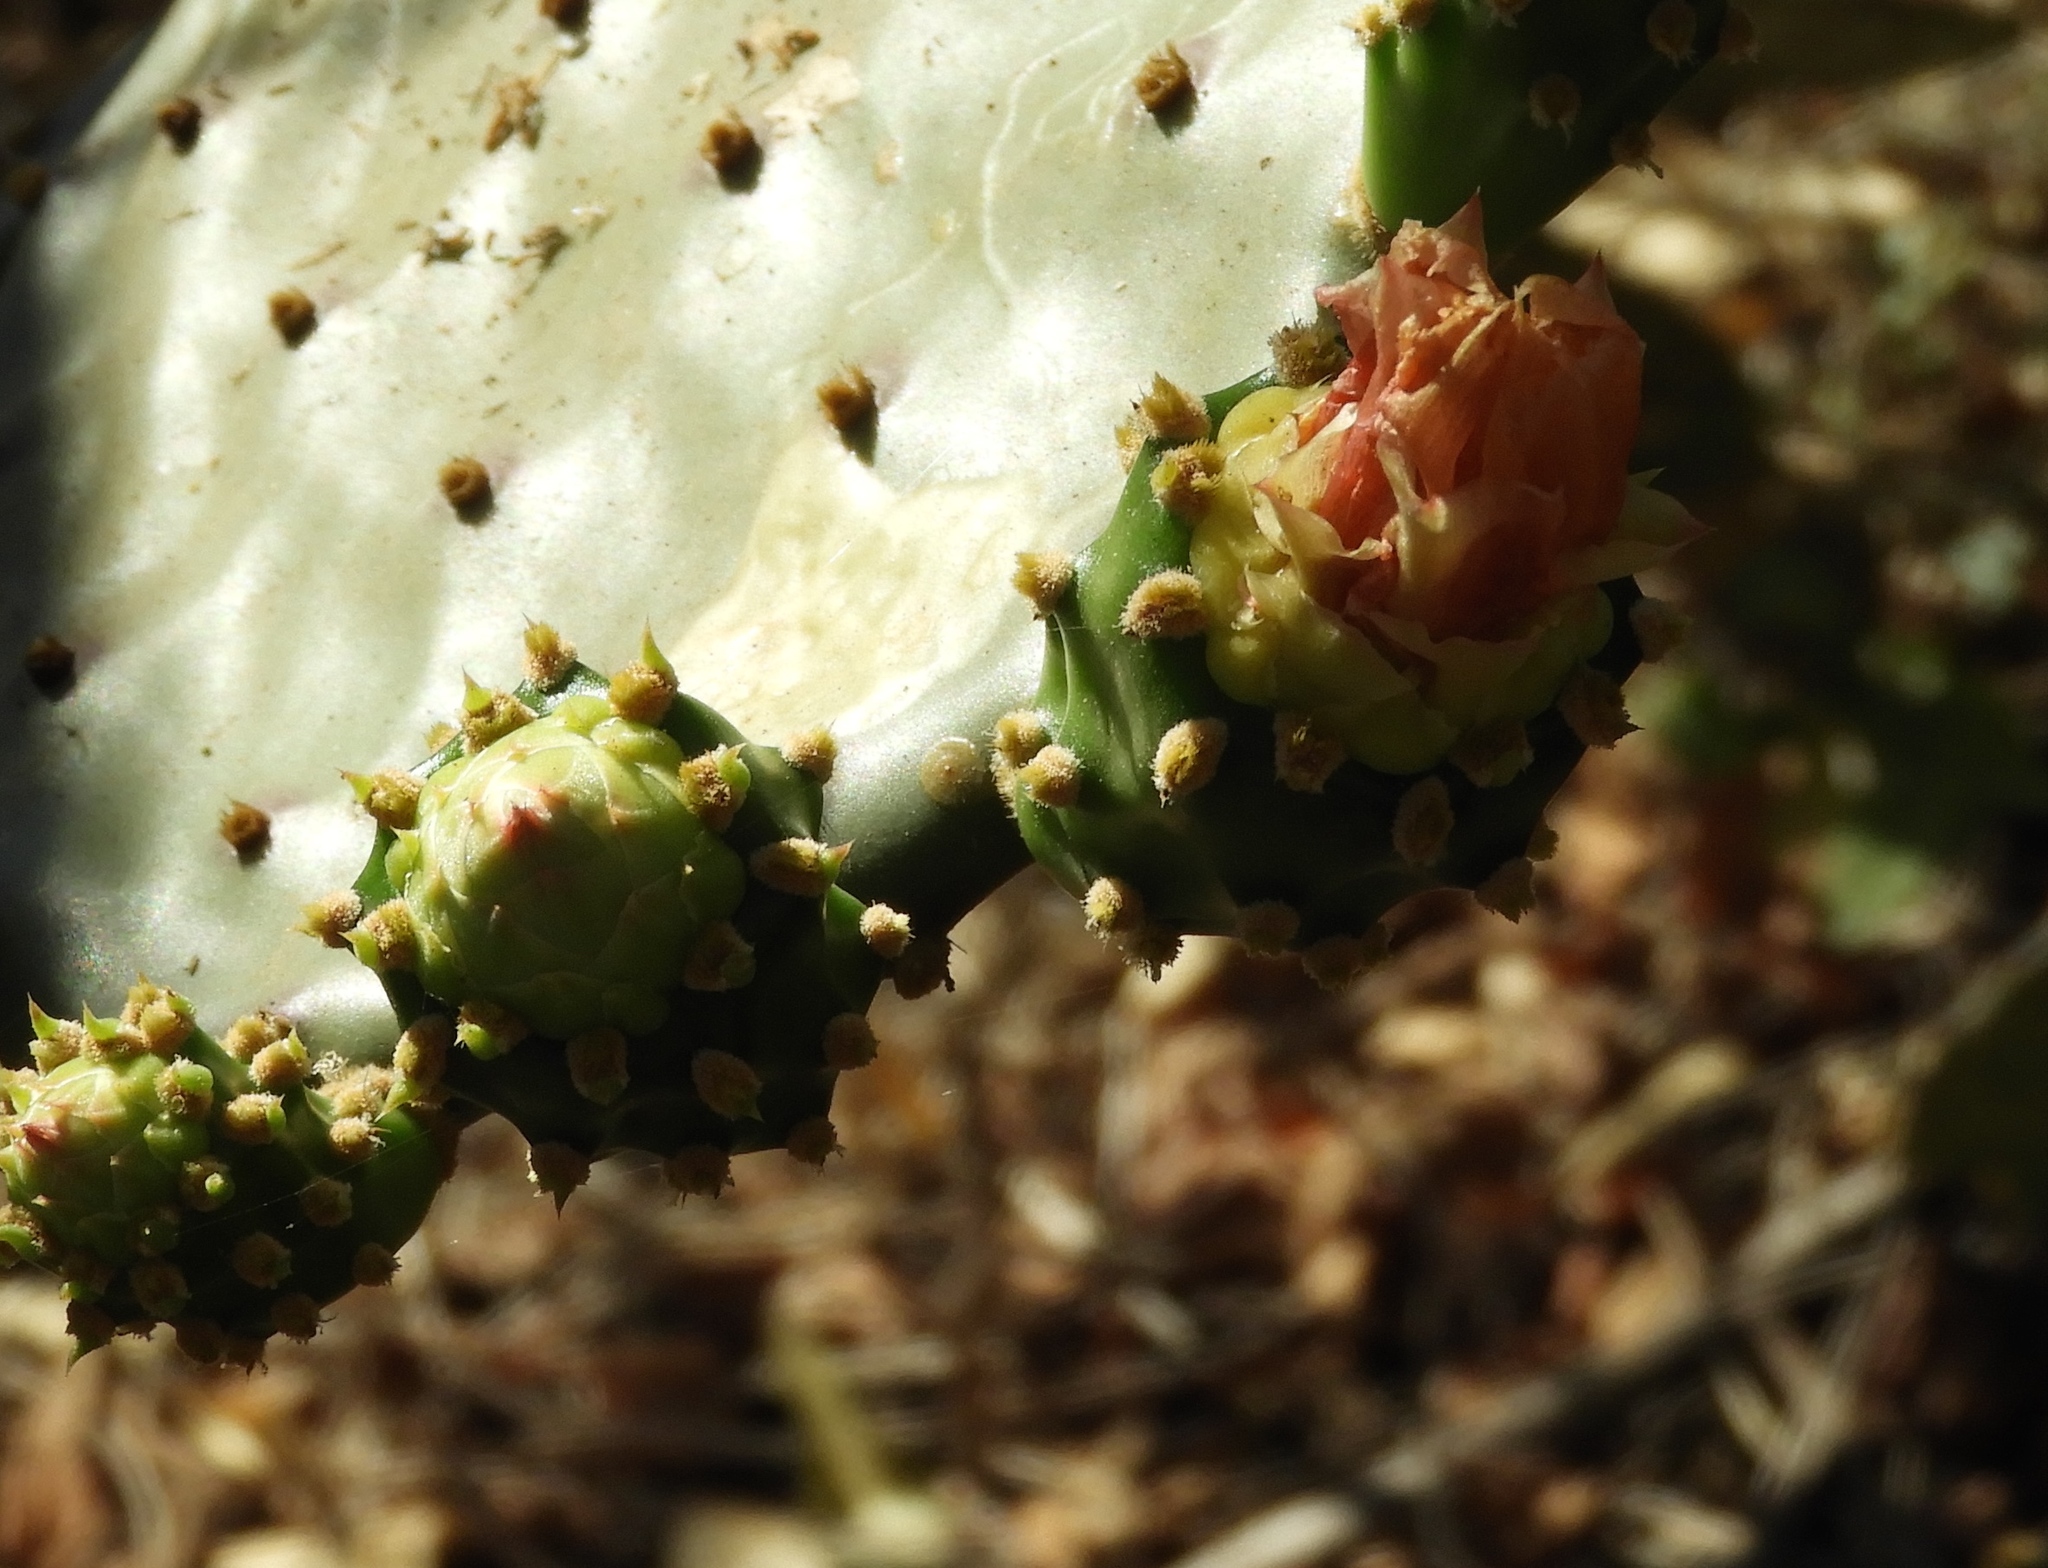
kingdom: Plantae
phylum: Tracheophyta
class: Magnoliopsida
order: Caryophyllales
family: Cactaceae
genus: Opuntia
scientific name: Opuntia decumbens
